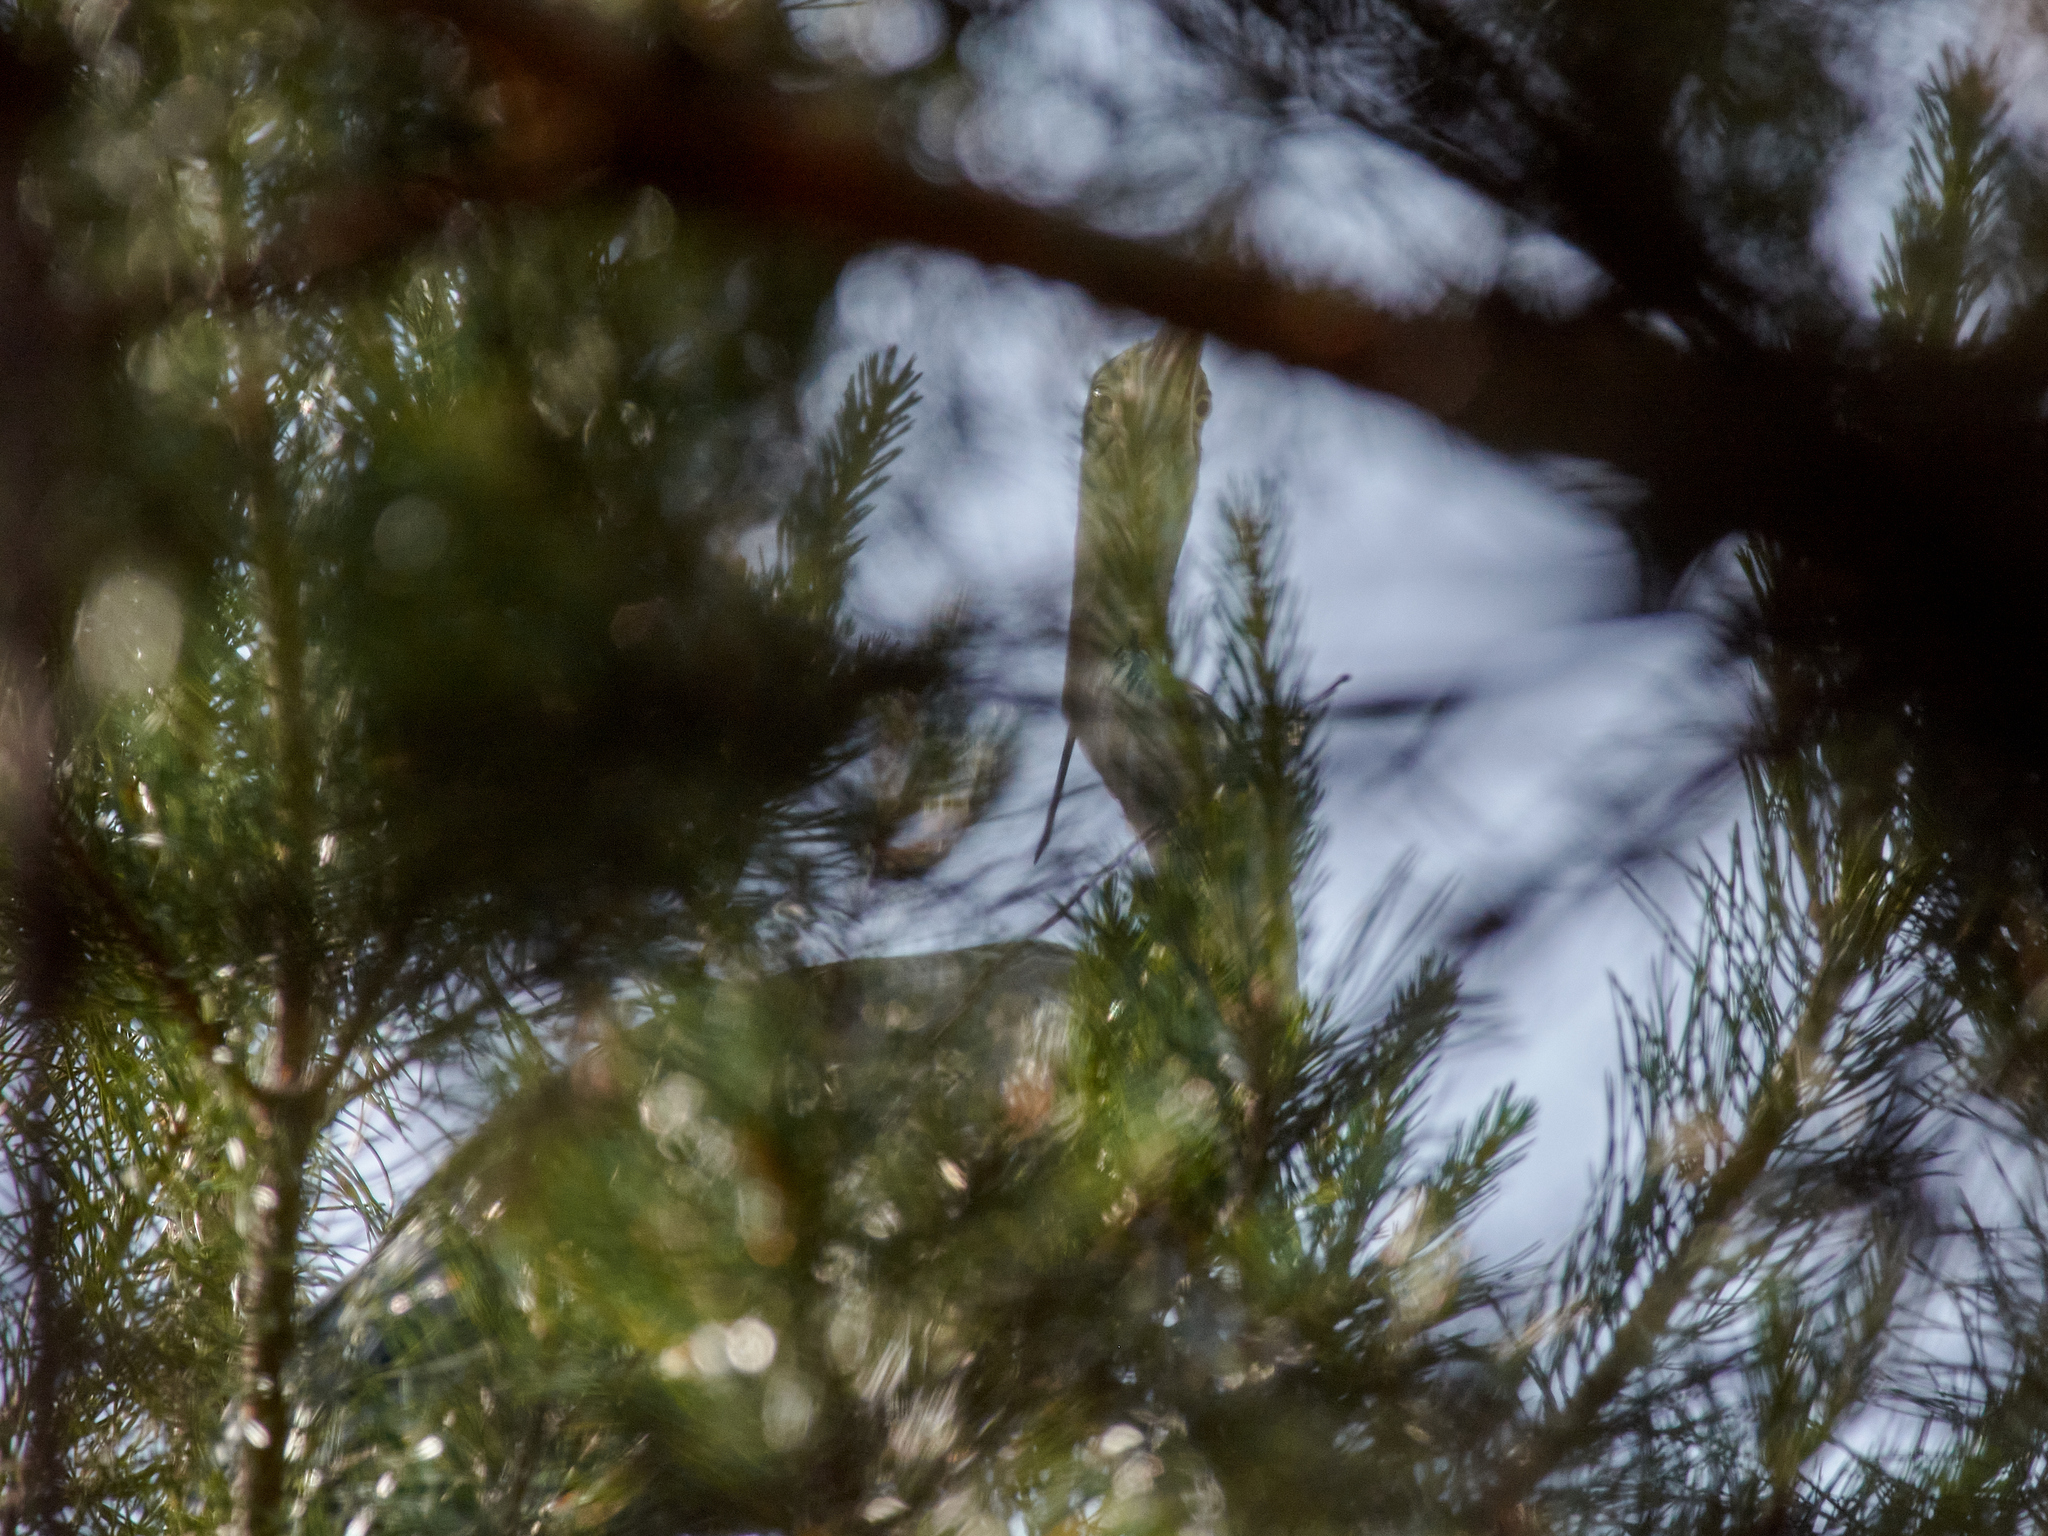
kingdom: Animalia
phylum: Chordata
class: Aves
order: Pelecaniformes
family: Ardeidae
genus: Ardea
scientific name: Ardea cinerea
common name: Grey heron
